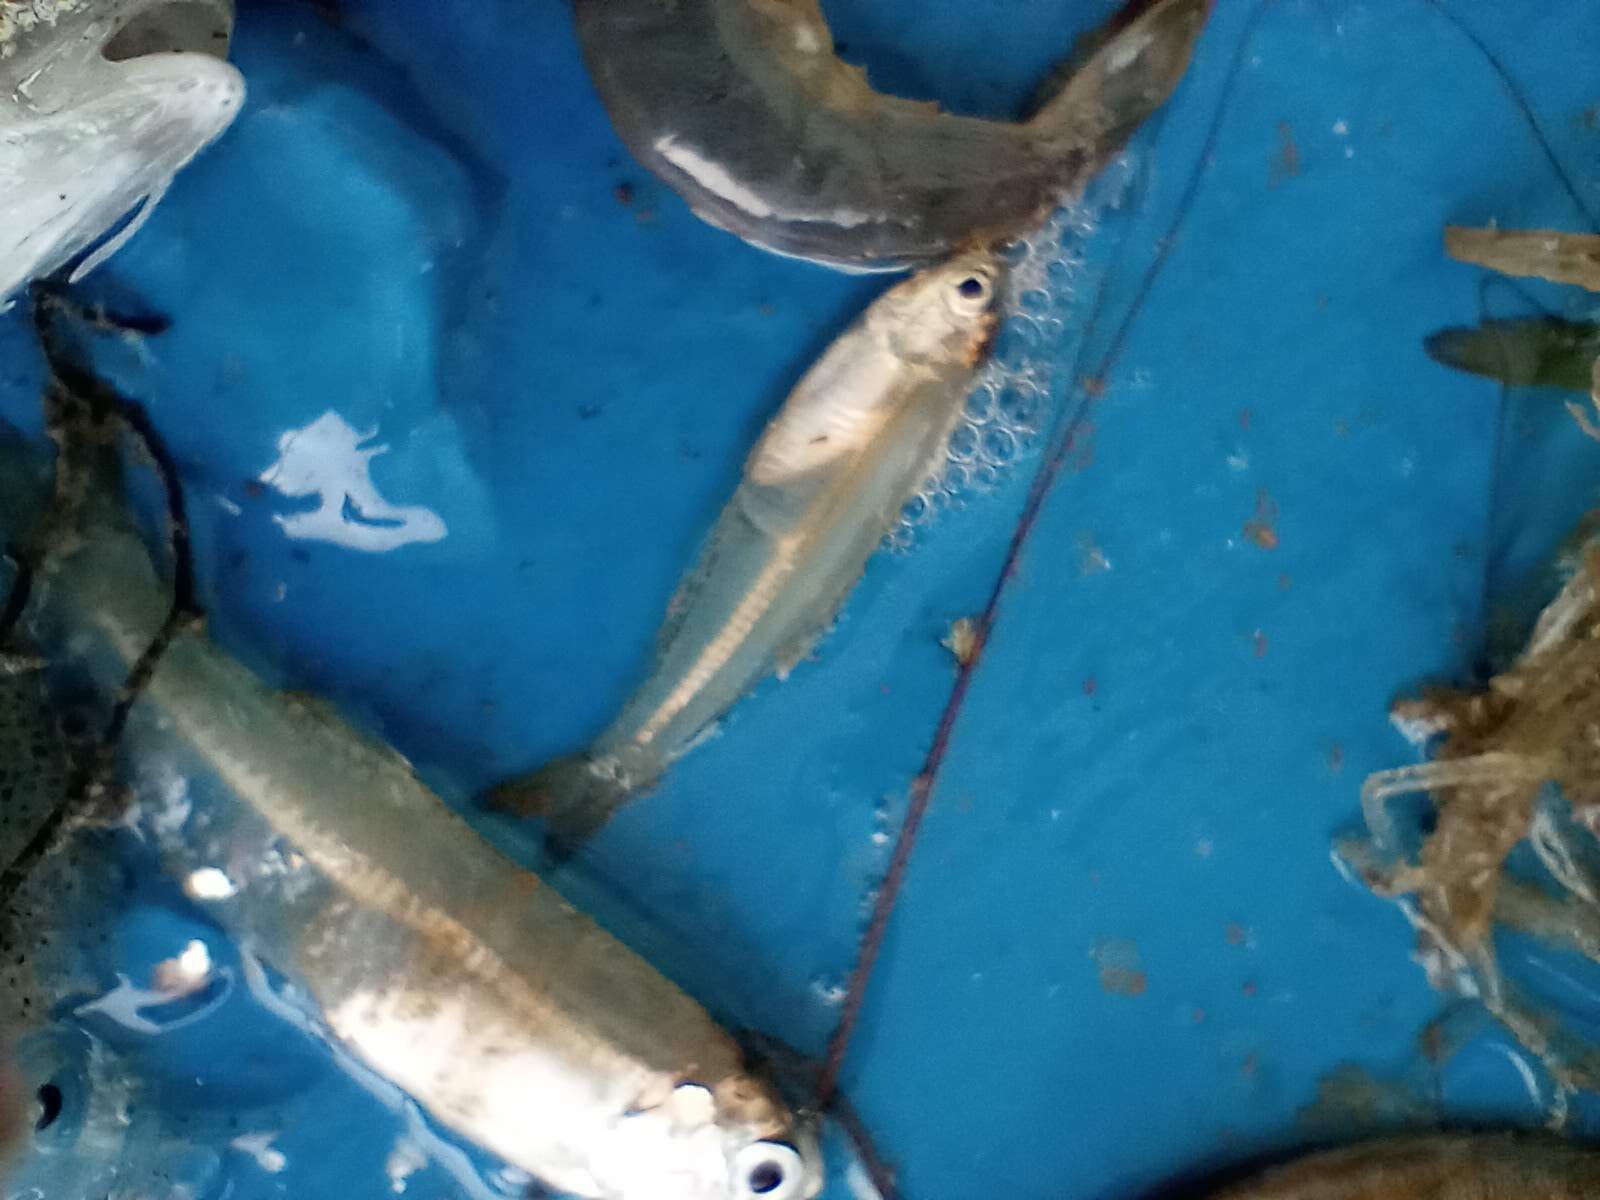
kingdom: Animalia
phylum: Chordata
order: Clupeiformes
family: Engraulidae
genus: Anchoa
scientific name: Anchoa mitchilli
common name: Bay anchovy
